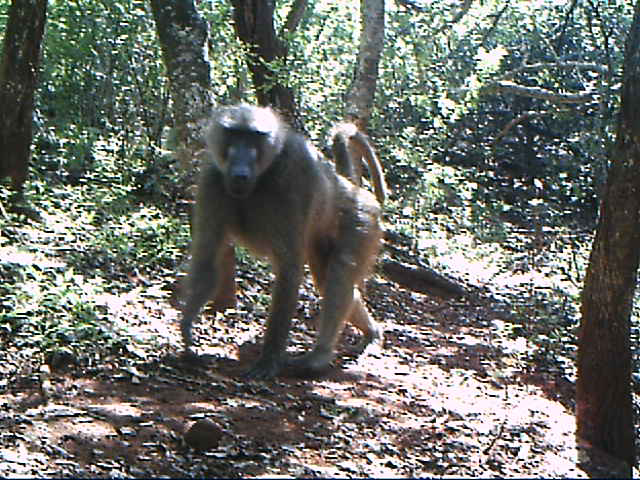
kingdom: Animalia
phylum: Chordata
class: Mammalia
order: Primates
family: Cercopithecidae
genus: Papio
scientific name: Papio ursinus
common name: Chacma baboon
